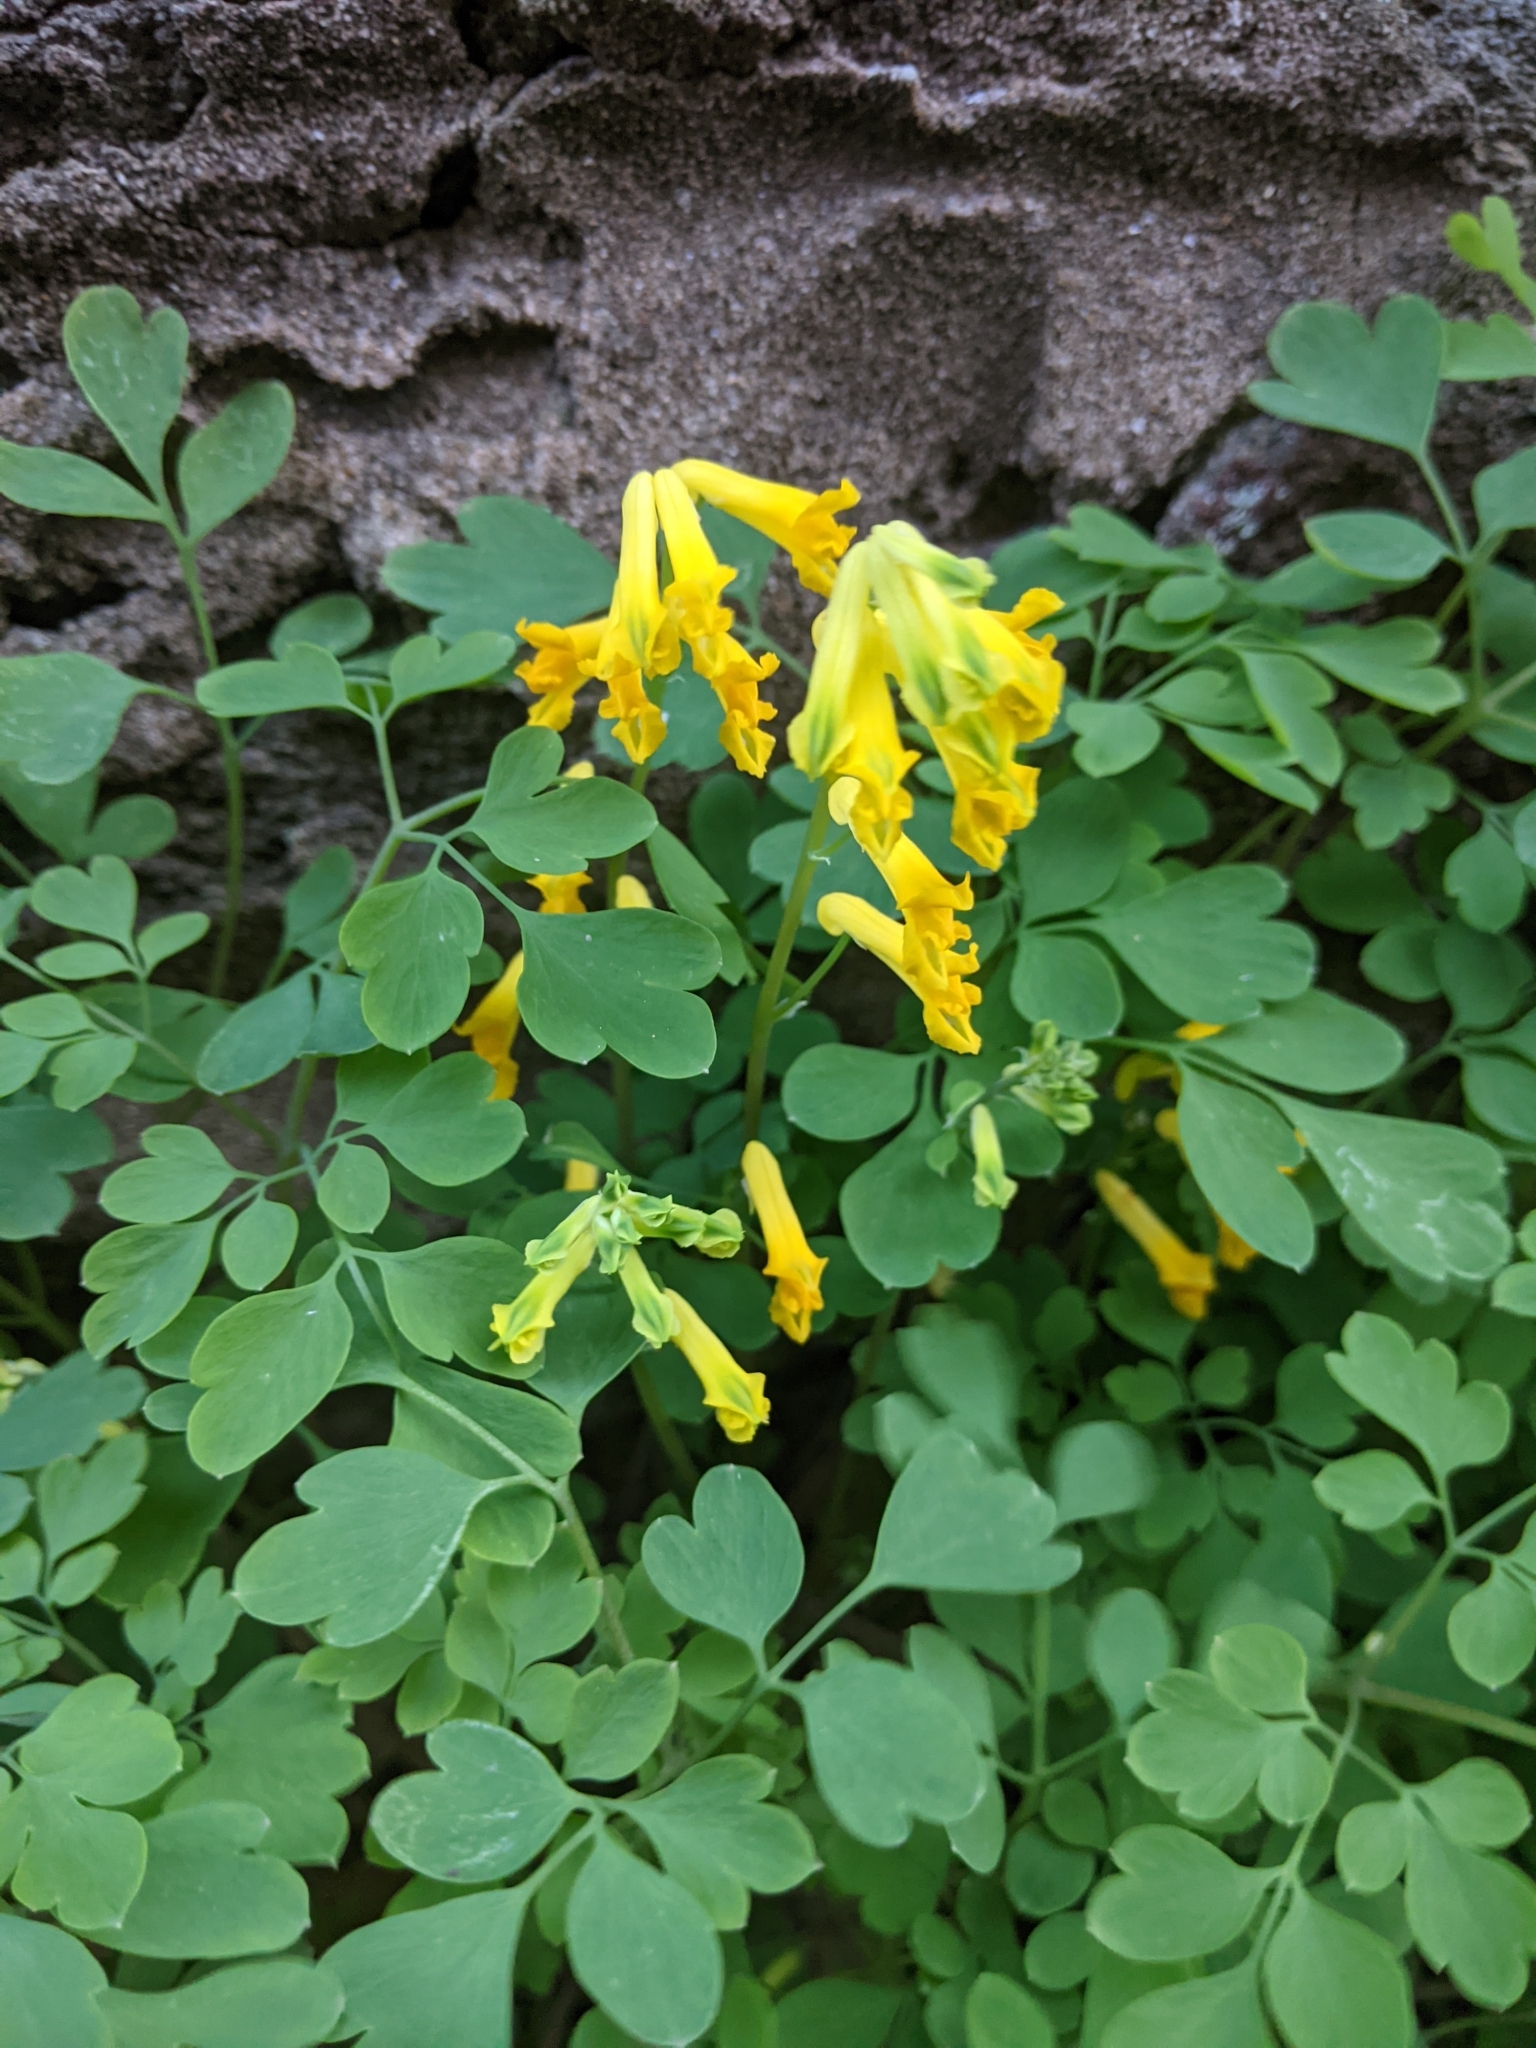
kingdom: Plantae
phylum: Tracheophyta
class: Magnoliopsida
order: Ranunculales
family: Papaveraceae
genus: Pseudofumaria
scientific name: Pseudofumaria lutea
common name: Yellow corydalis
